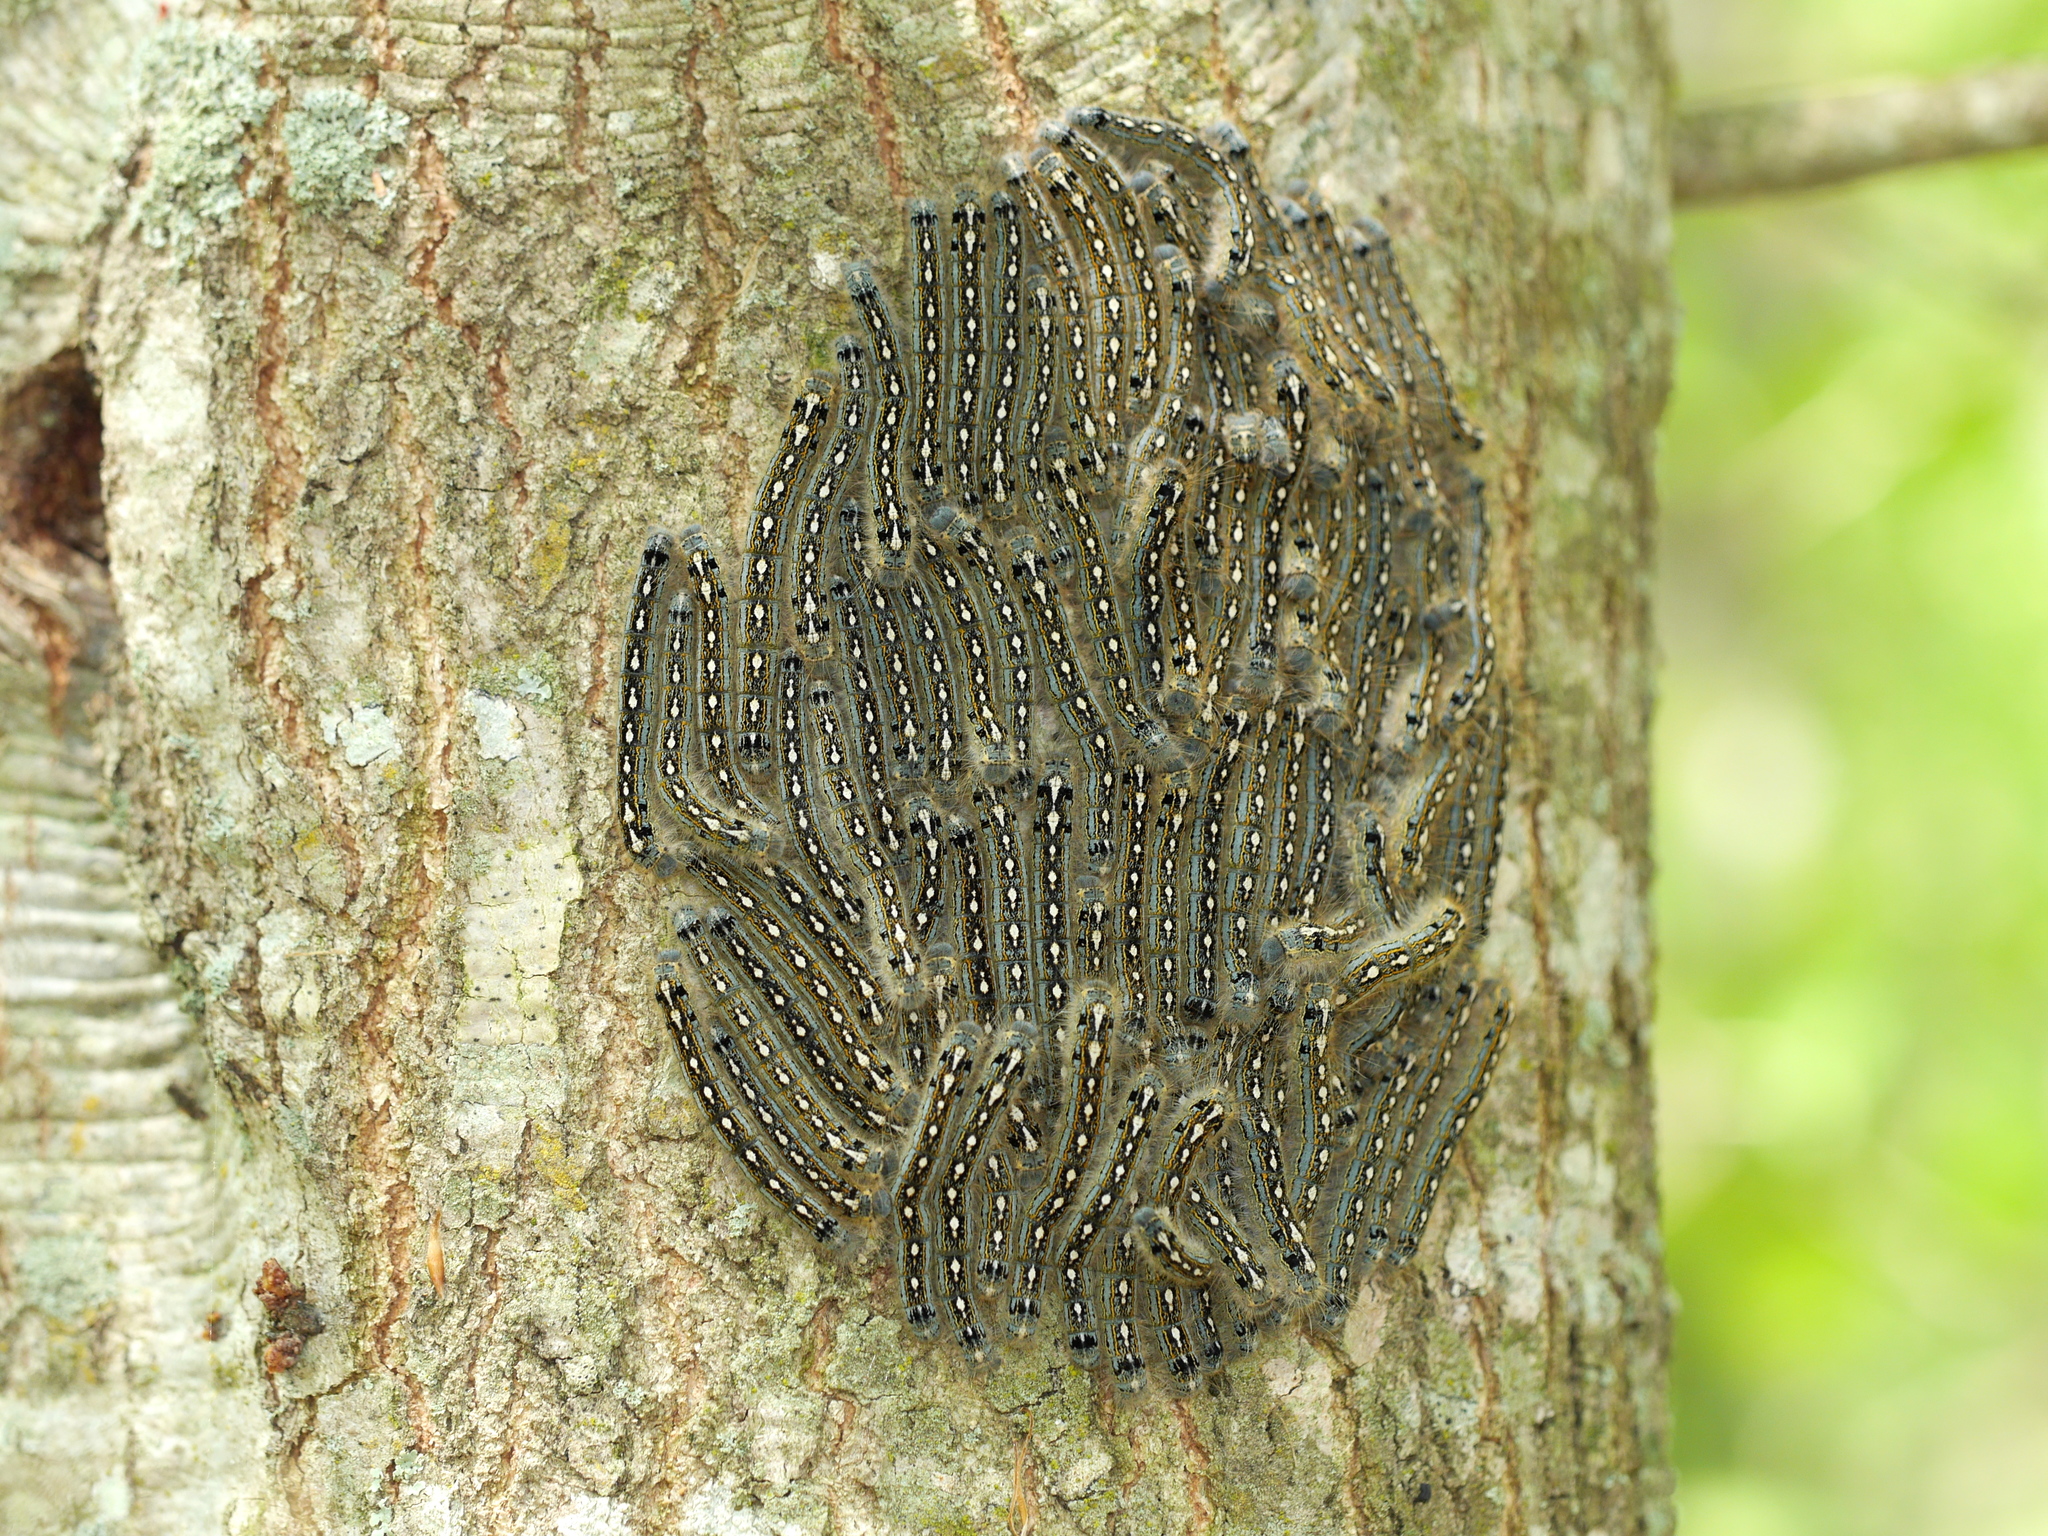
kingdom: Animalia
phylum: Arthropoda
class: Insecta
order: Lepidoptera
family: Lasiocampidae
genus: Malacosoma
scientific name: Malacosoma disstria
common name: Forest tent caterpillar
